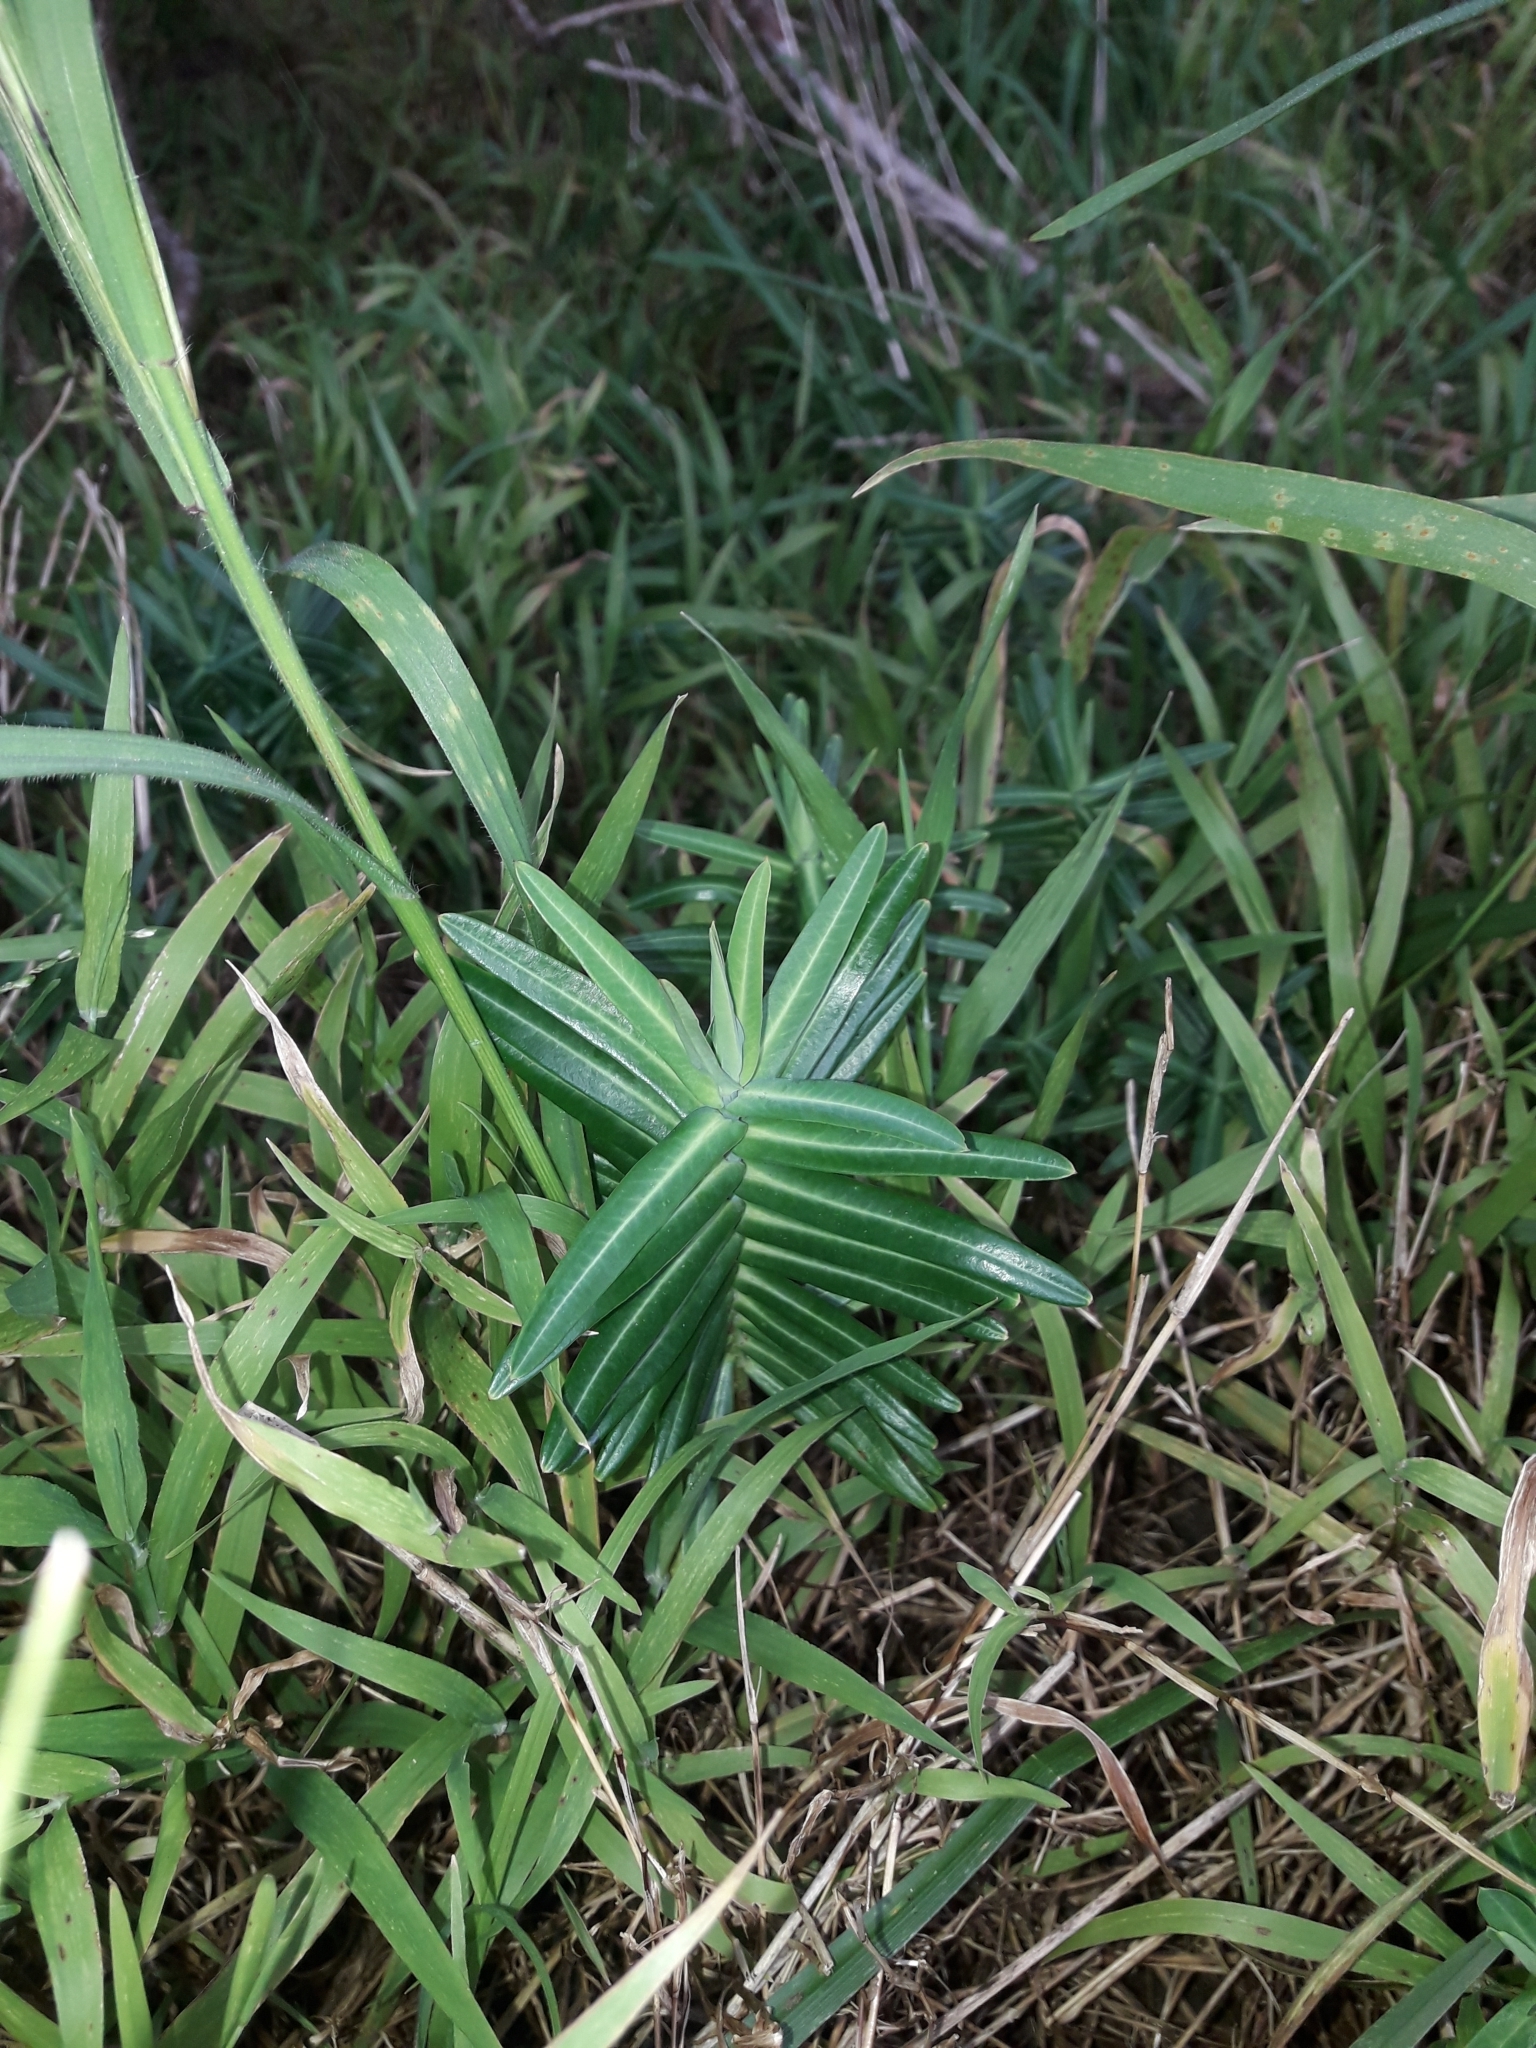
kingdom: Plantae
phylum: Tracheophyta
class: Magnoliopsida
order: Malpighiales
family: Euphorbiaceae
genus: Euphorbia
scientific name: Euphorbia lathyris
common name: Caper spurge
